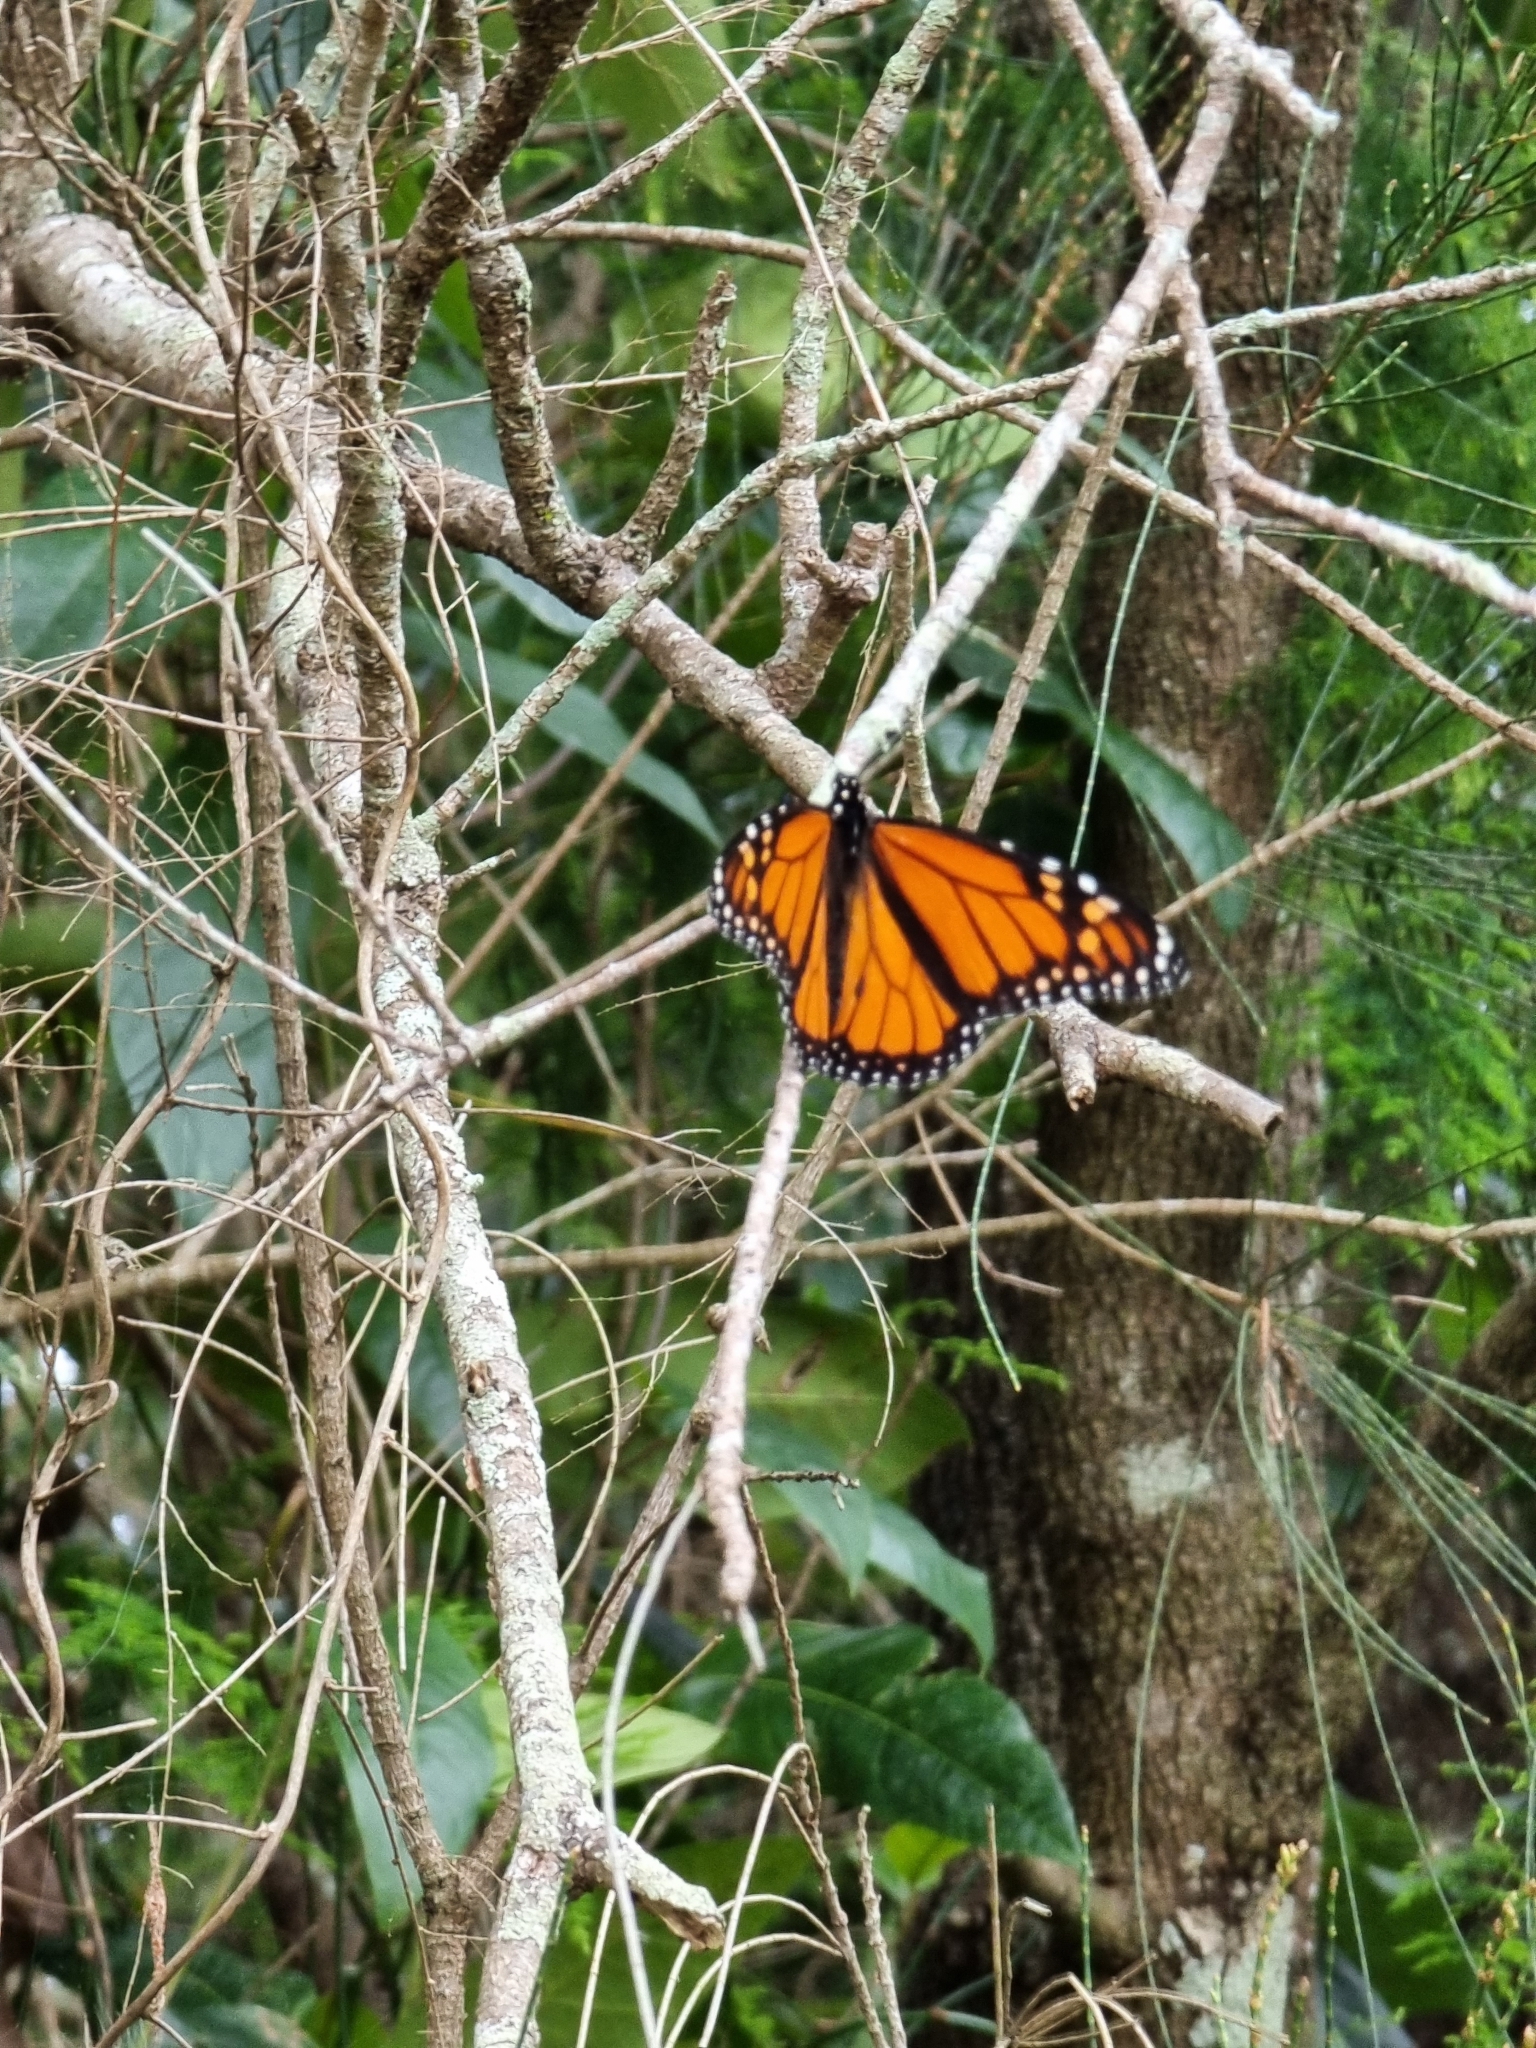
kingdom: Animalia
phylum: Arthropoda
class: Insecta
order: Lepidoptera
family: Nymphalidae
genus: Danaus
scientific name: Danaus plexippus
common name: Monarch
